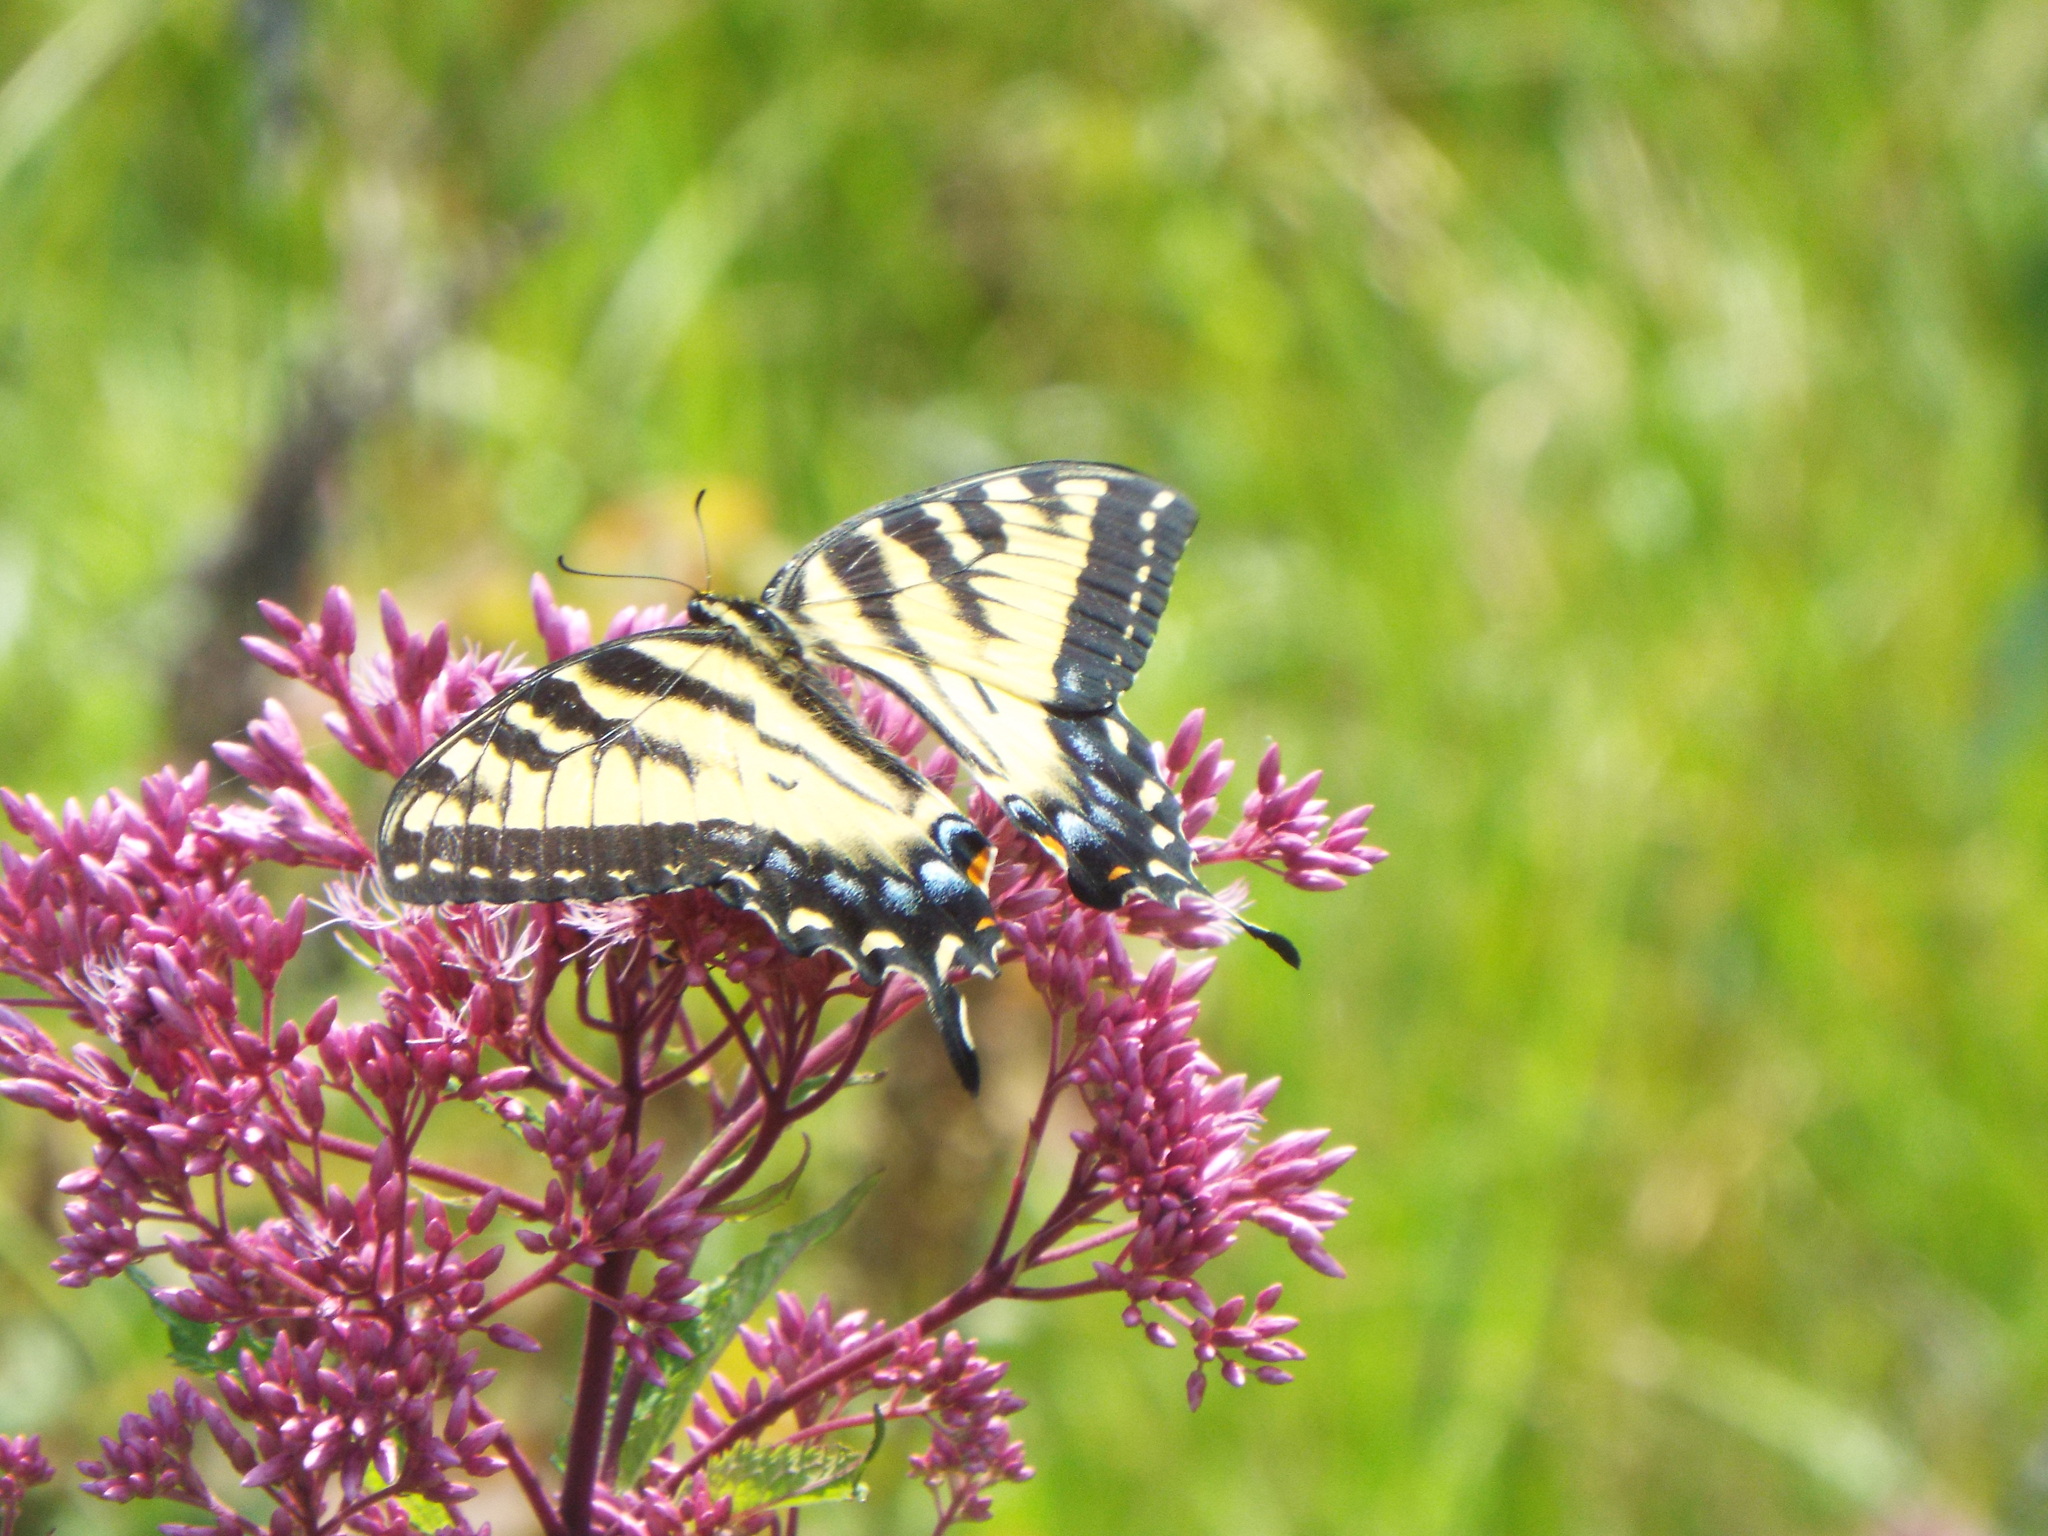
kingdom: Animalia
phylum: Arthropoda
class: Insecta
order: Lepidoptera
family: Papilionidae
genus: Papilio
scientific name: Papilio glaucus
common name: Tiger swallowtail
